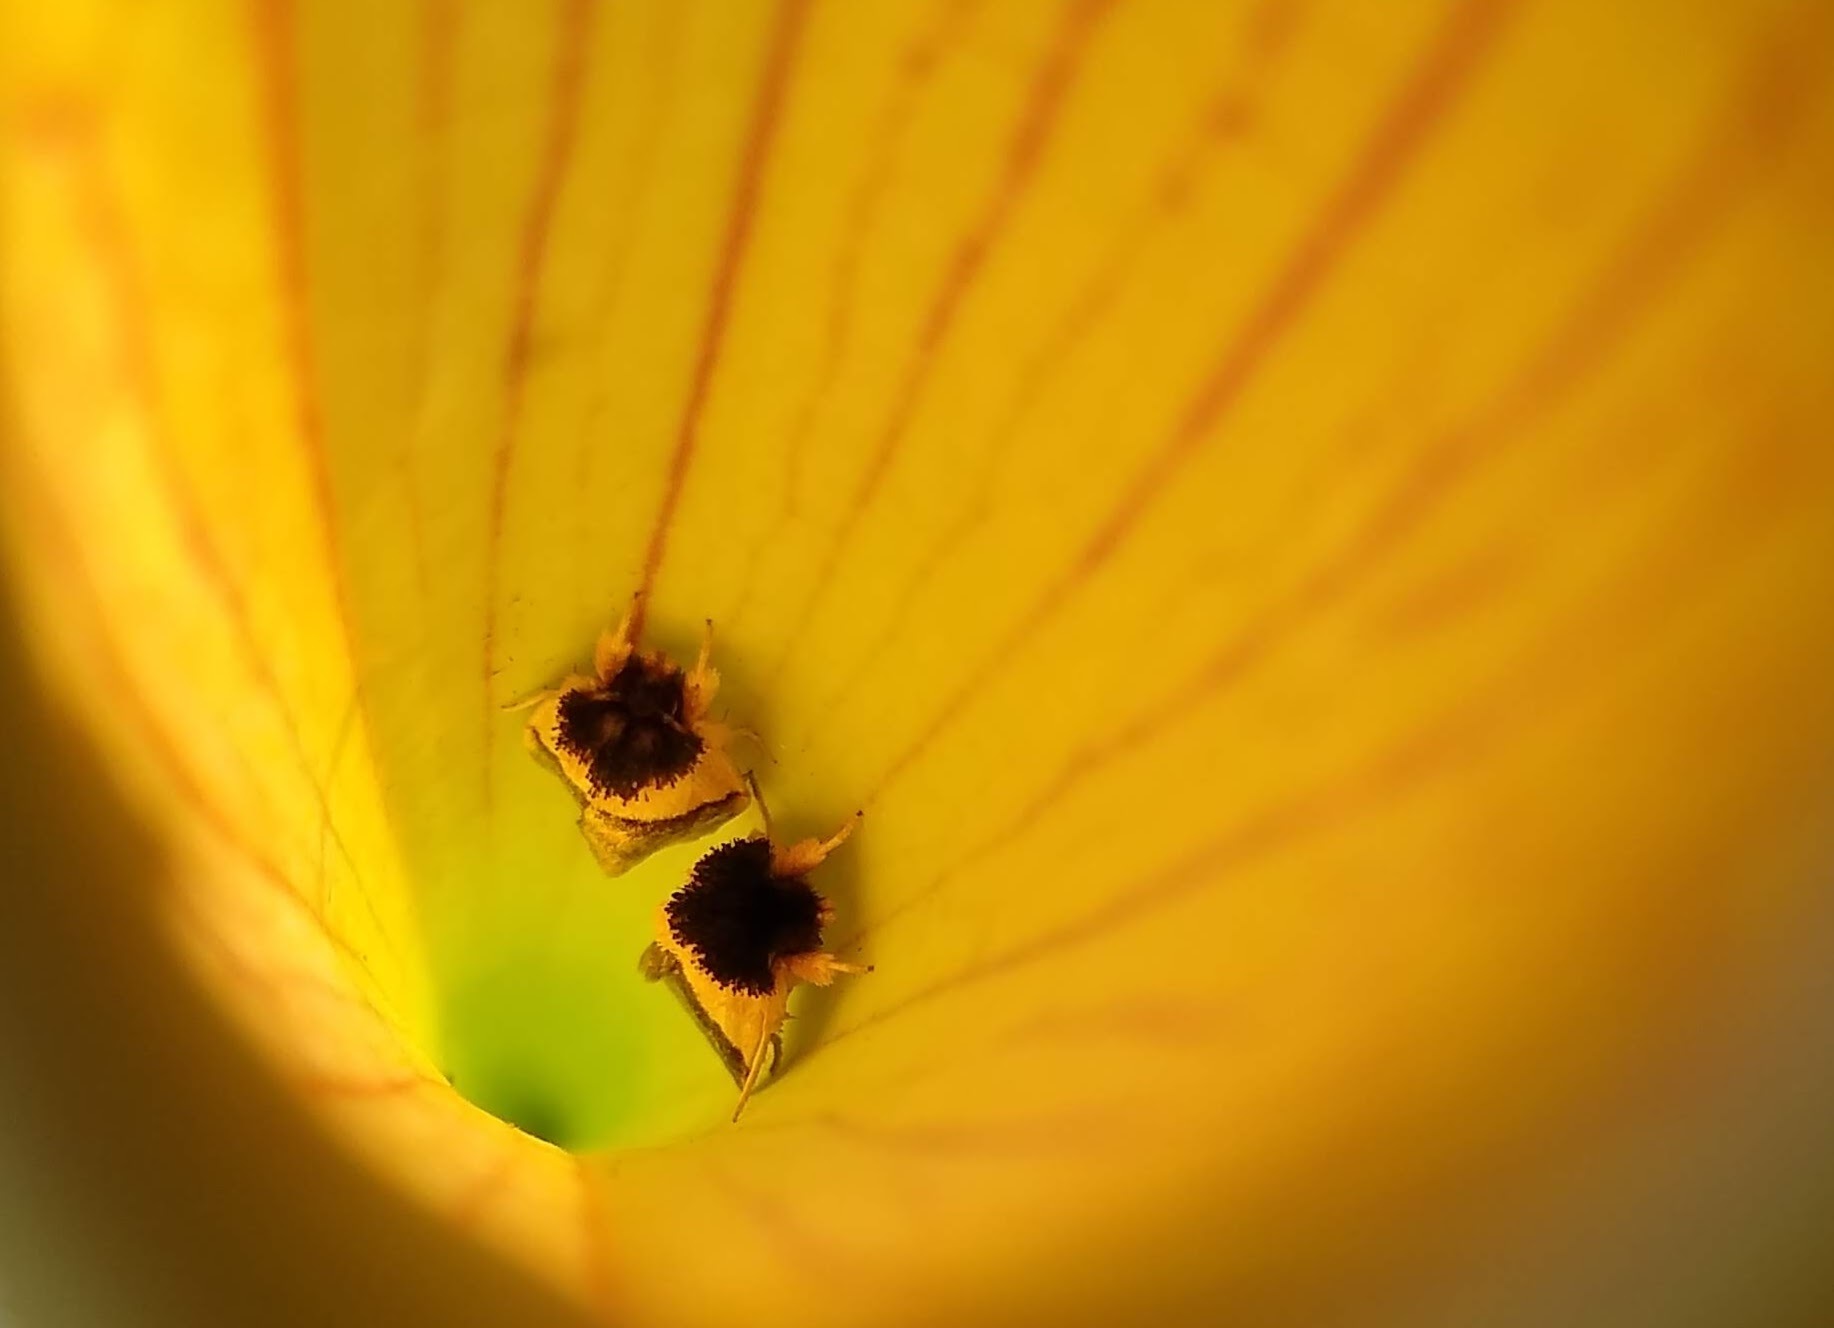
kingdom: Animalia
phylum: Arthropoda
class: Insecta
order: Lepidoptera
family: Noctuidae
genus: Exyra
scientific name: Exyra semicrocea
